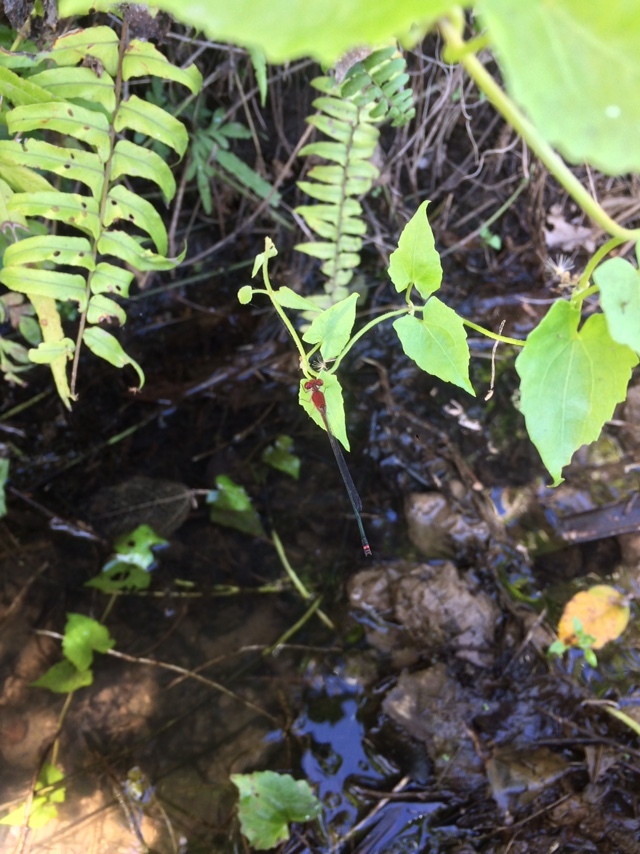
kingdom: Animalia
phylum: Arthropoda
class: Insecta
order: Odonata
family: Coenagrionidae
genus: Pseudagrion
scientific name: Pseudagrion pilidorsum
